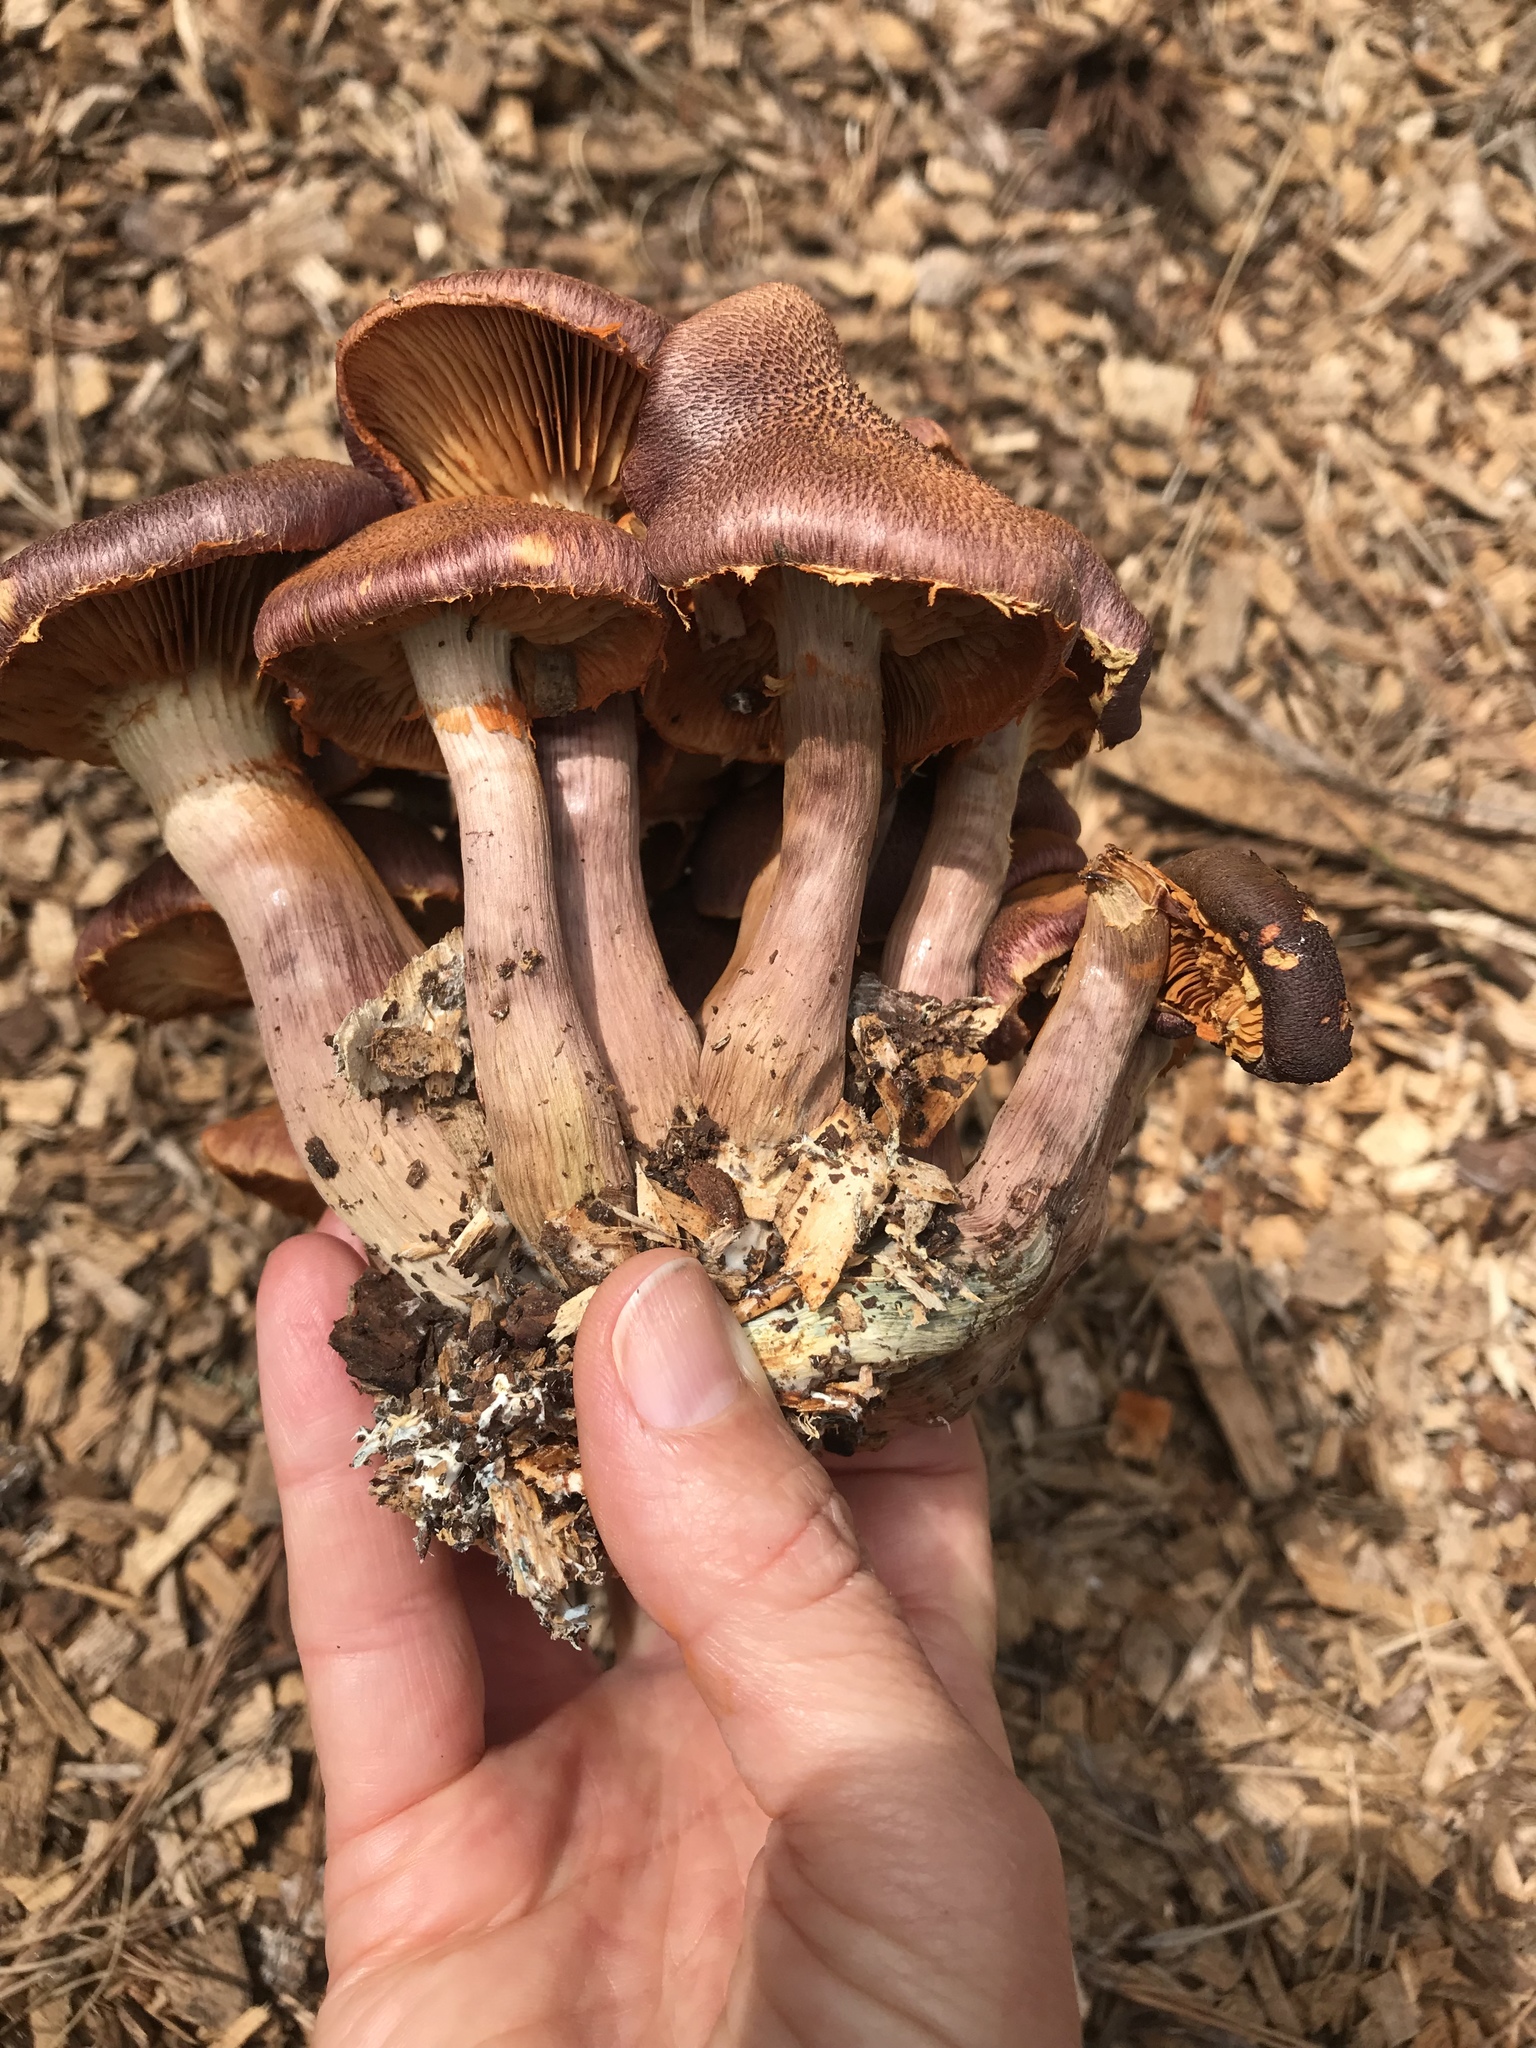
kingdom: Fungi
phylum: Basidiomycota
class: Agaricomycetes
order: Agaricales
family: Hymenogastraceae
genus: Gymnopilus
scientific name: Gymnopilus luteofolius
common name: Yellow-gilled gymnopilus
